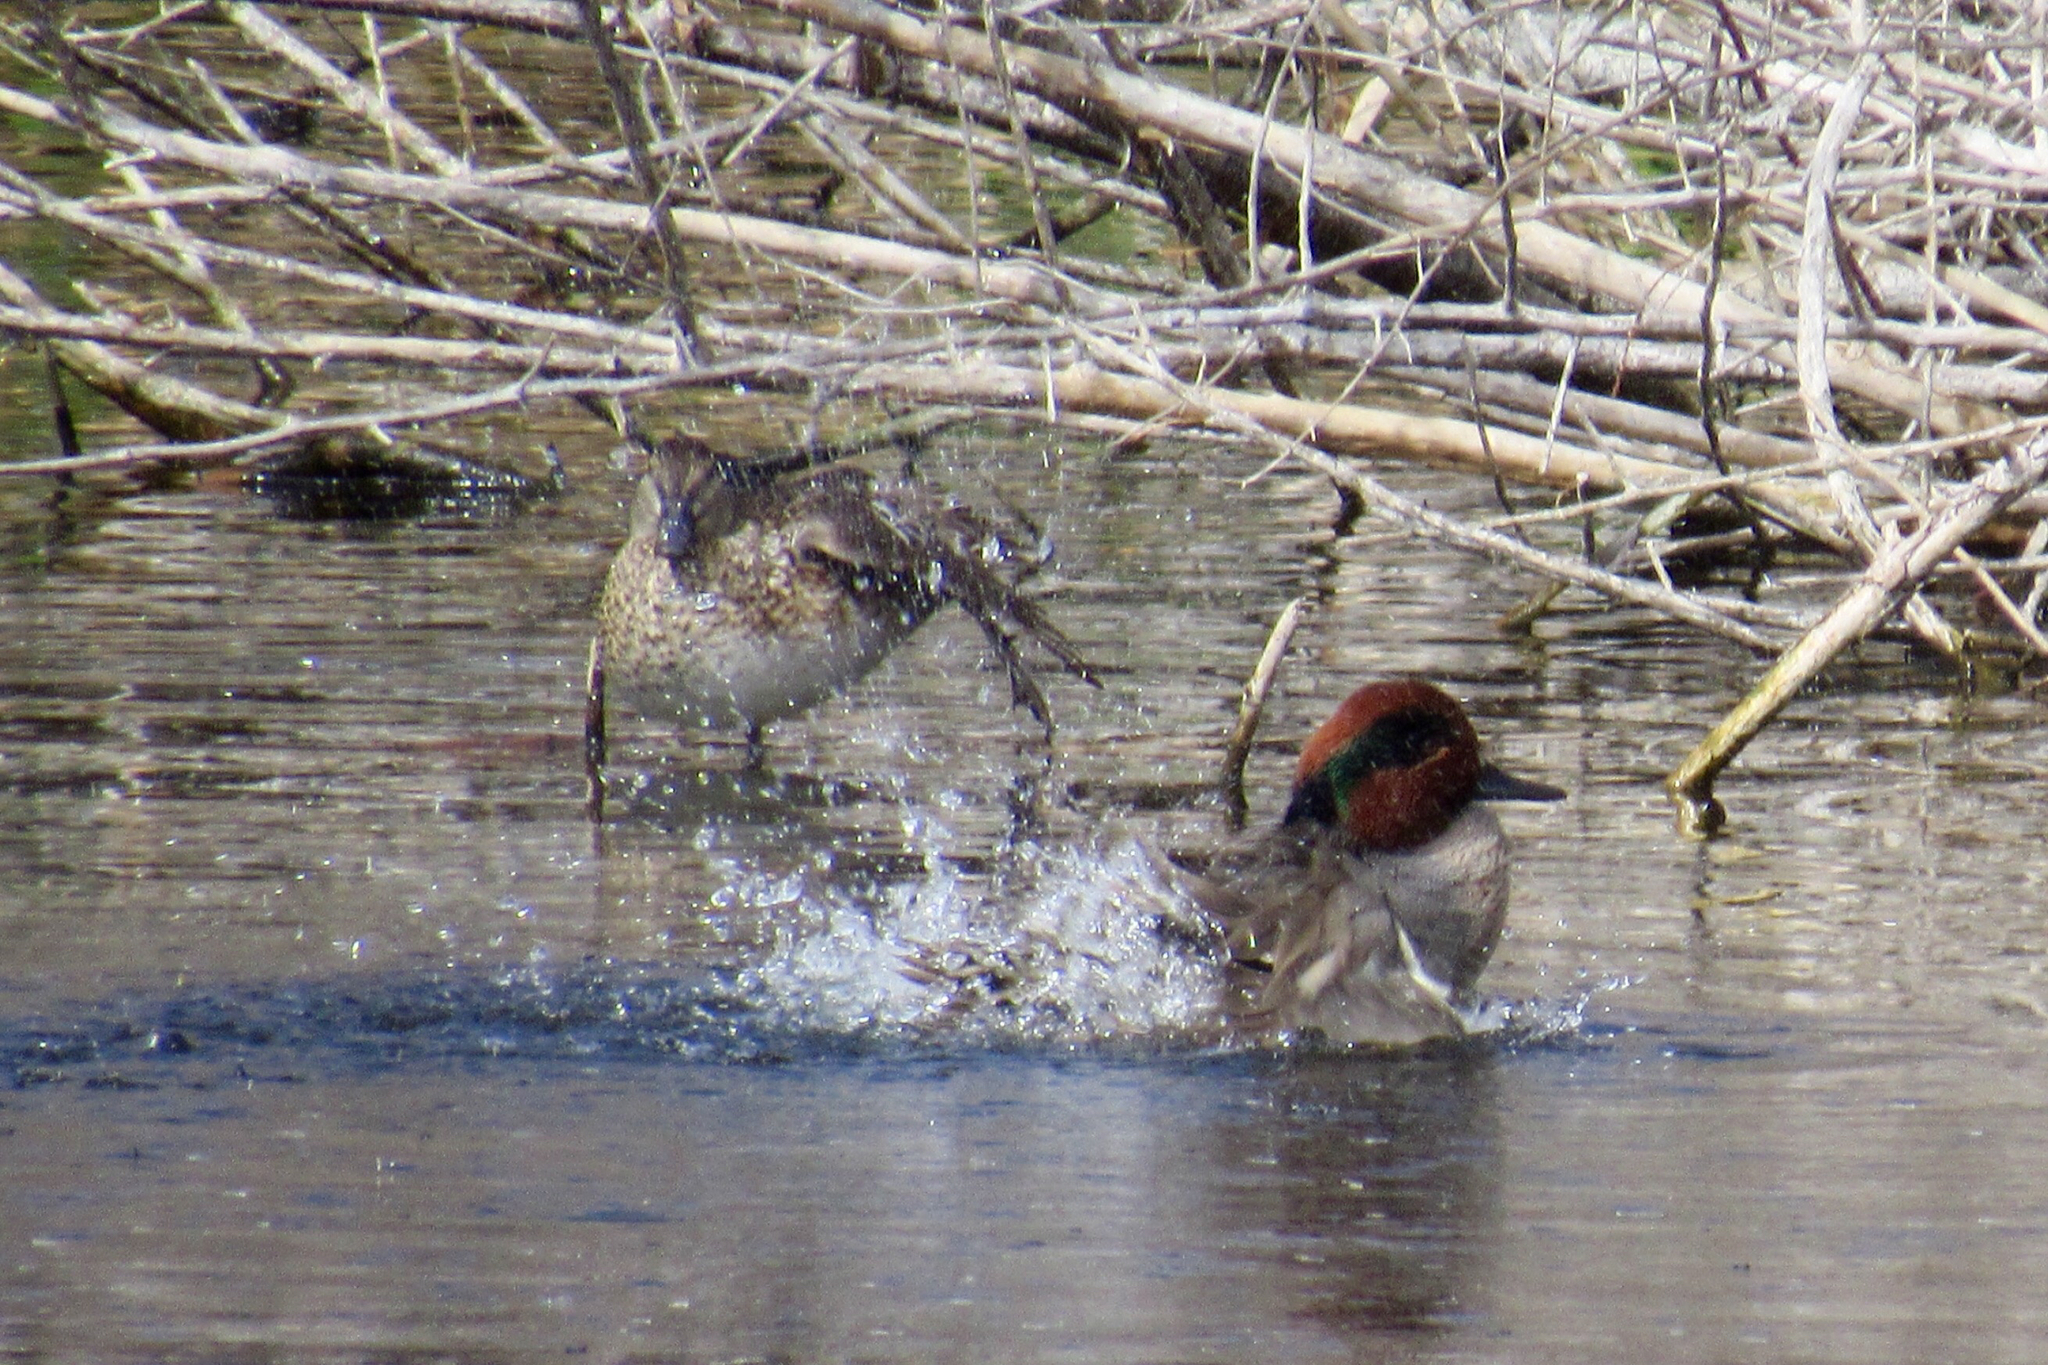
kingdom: Animalia
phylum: Chordata
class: Aves
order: Anseriformes
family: Anatidae
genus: Anas
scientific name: Anas crecca
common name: Eurasian teal
